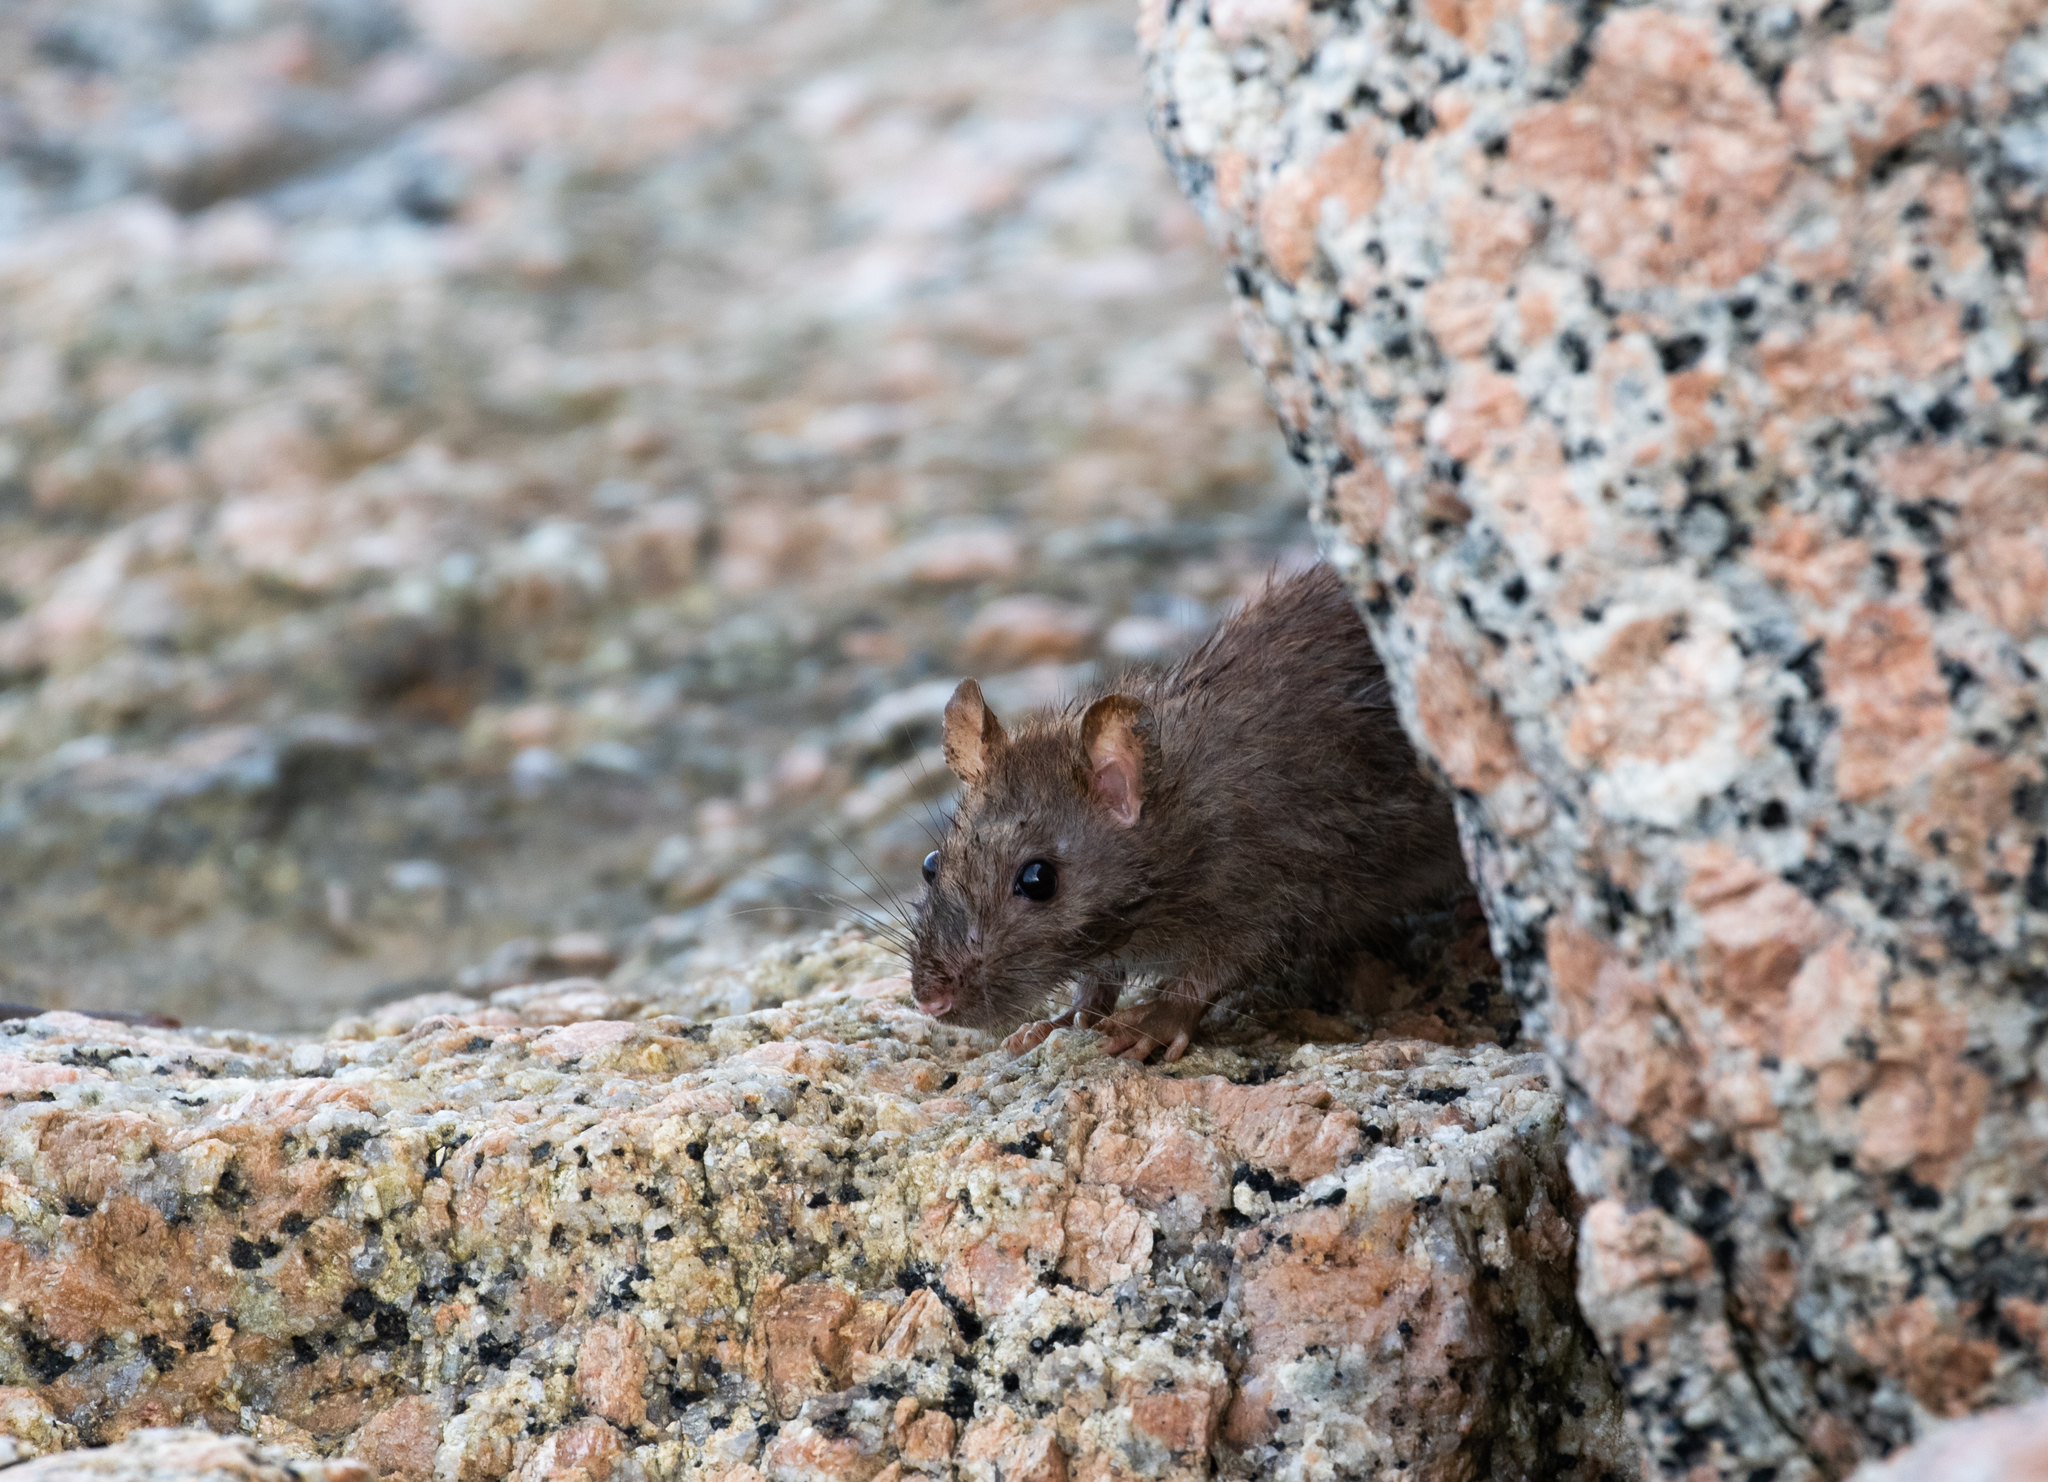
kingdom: Animalia
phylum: Chordata
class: Mammalia
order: Rodentia
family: Muridae
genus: Rattus
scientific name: Rattus norvegicus
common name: Brown rat
